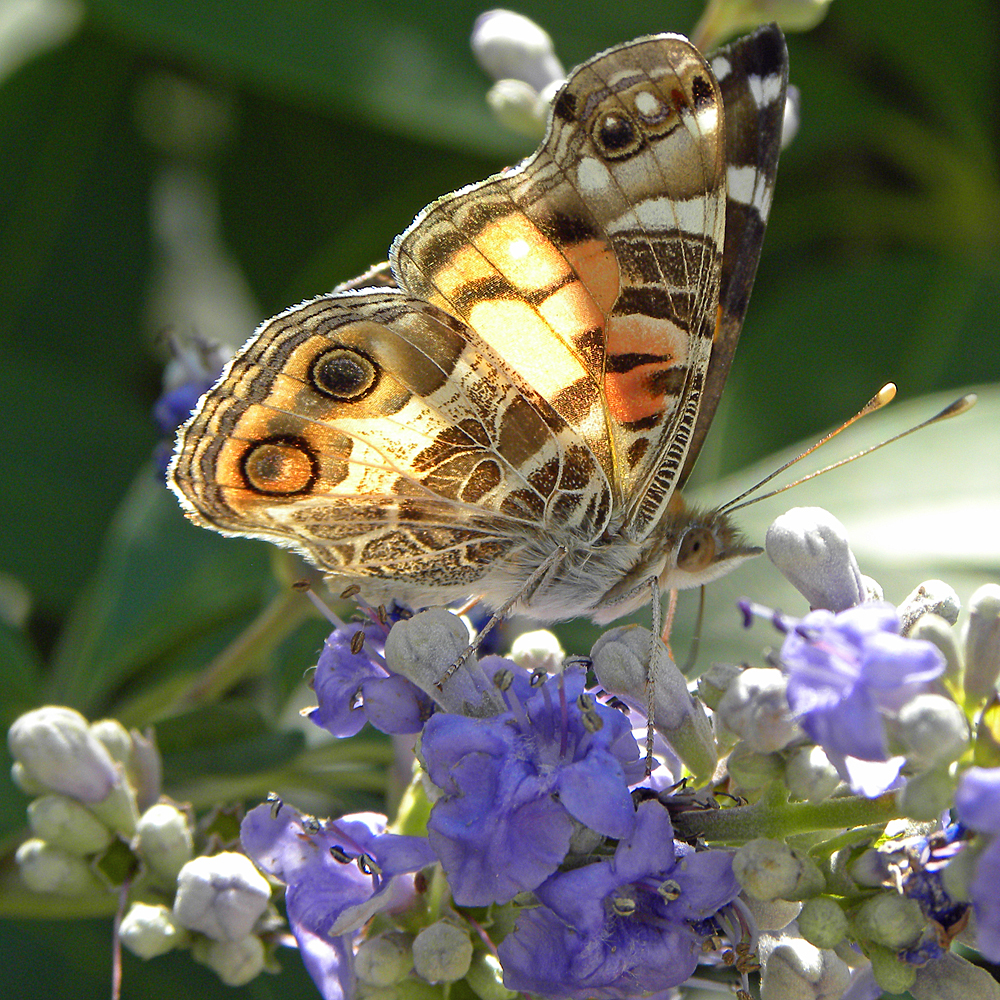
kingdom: Animalia
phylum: Arthropoda
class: Insecta
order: Lepidoptera
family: Nymphalidae
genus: Vanessa
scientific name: Vanessa virginiensis
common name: American lady
